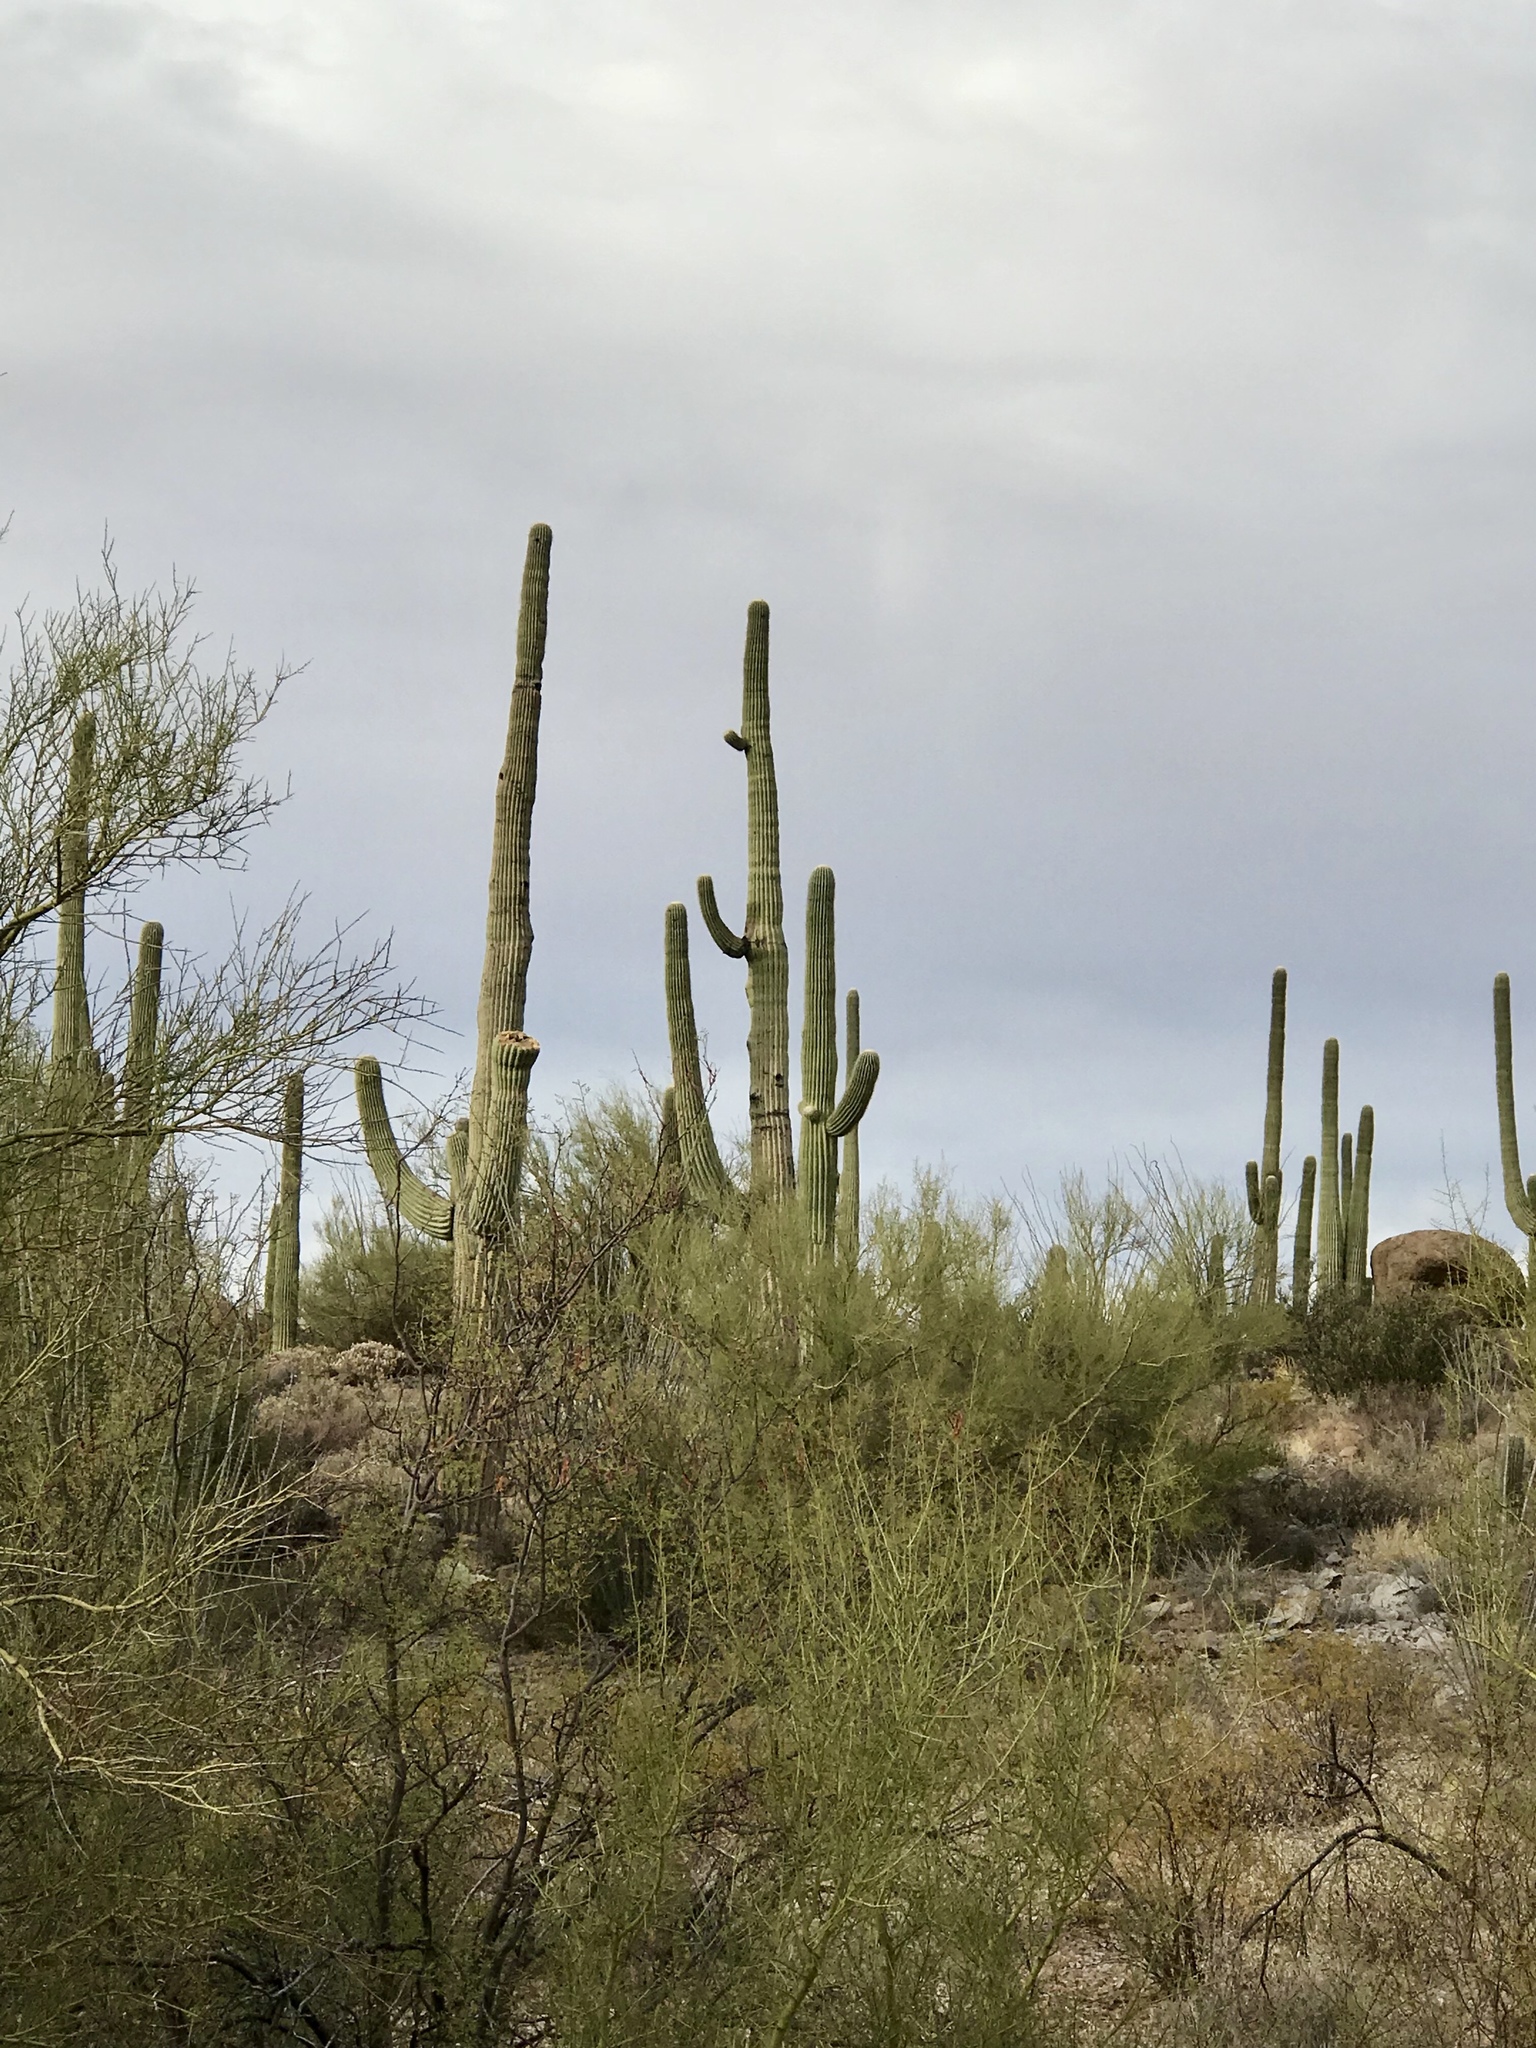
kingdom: Plantae
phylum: Tracheophyta
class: Magnoliopsida
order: Caryophyllales
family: Cactaceae
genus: Carnegiea
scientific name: Carnegiea gigantea
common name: Saguaro
